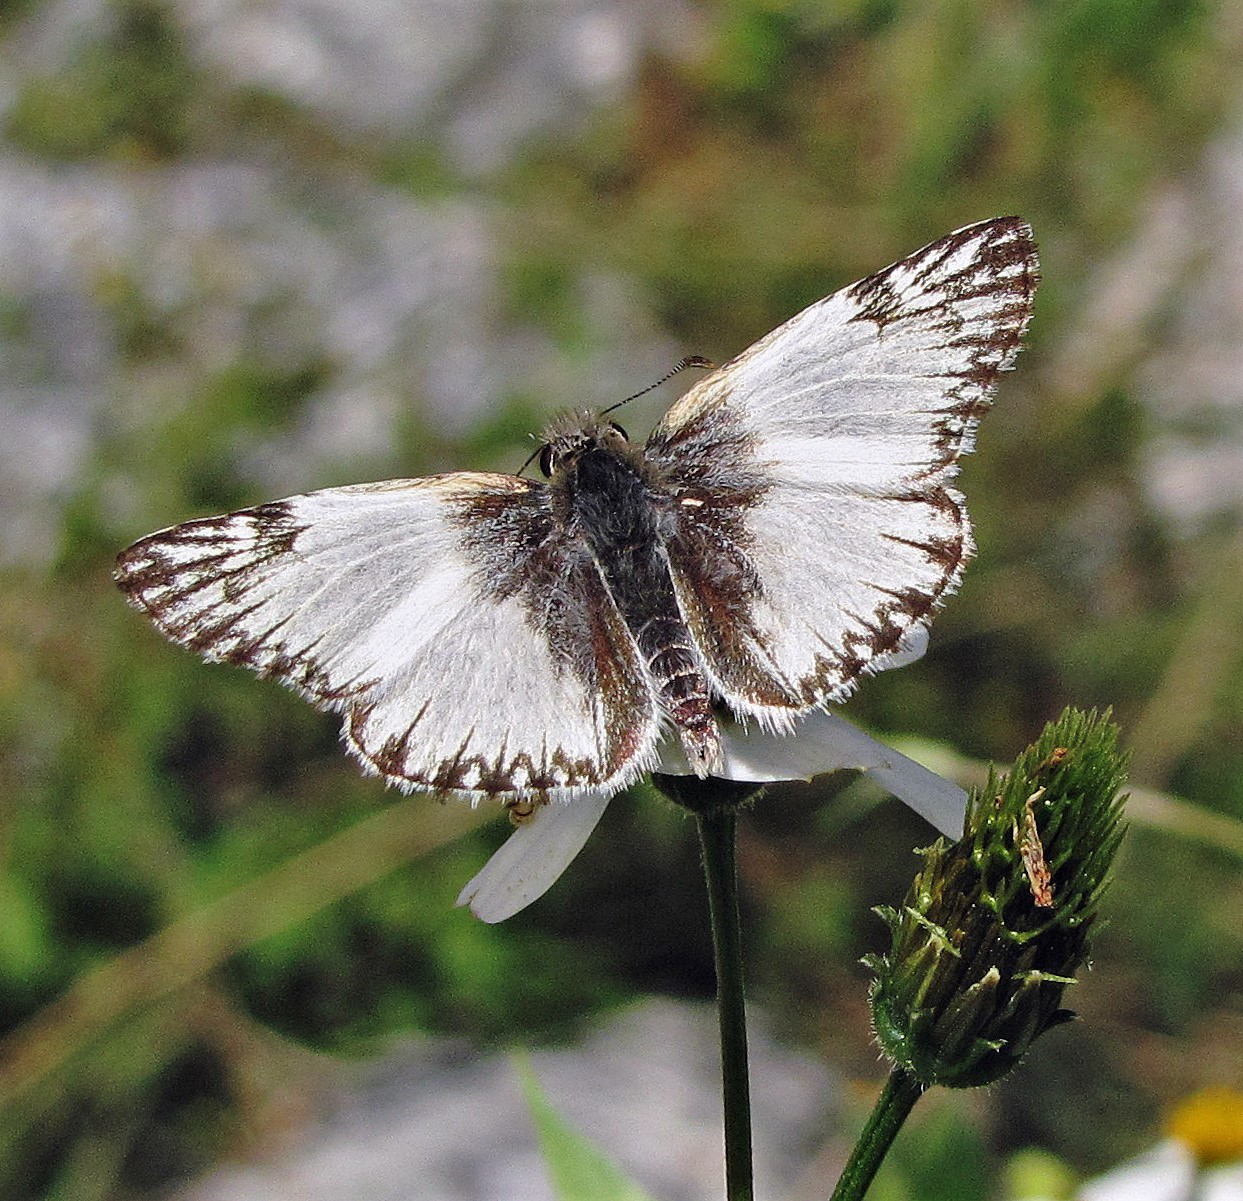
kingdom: Animalia
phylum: Arthropoda
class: Insecta
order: Lepidoptera
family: Hesperiidae
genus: Heliopetes
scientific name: Heliopetes omrina
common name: Stained white-skipper
